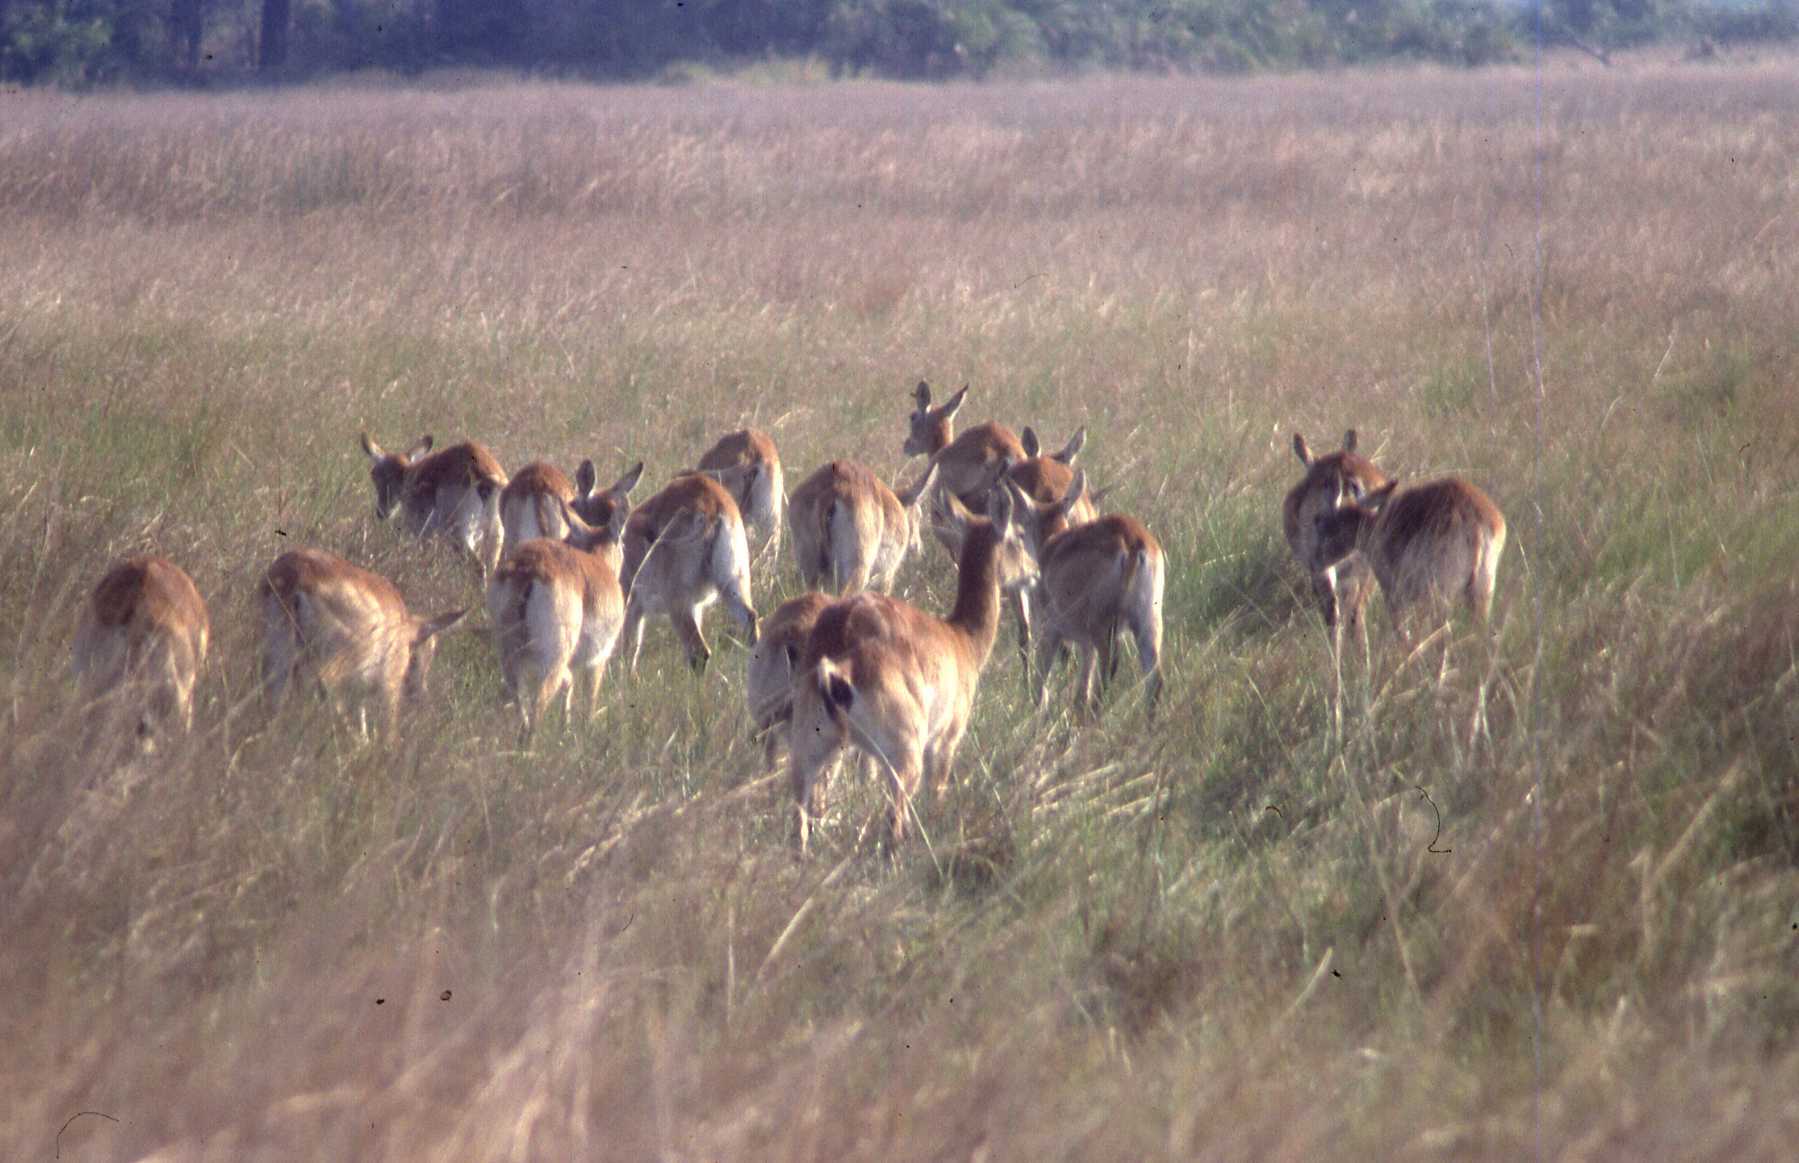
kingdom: Animalia
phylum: Chordata
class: Mammalia
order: Artiodactyla
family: Bovidae
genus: Kobus
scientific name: Kobus leche
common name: Lechwe
